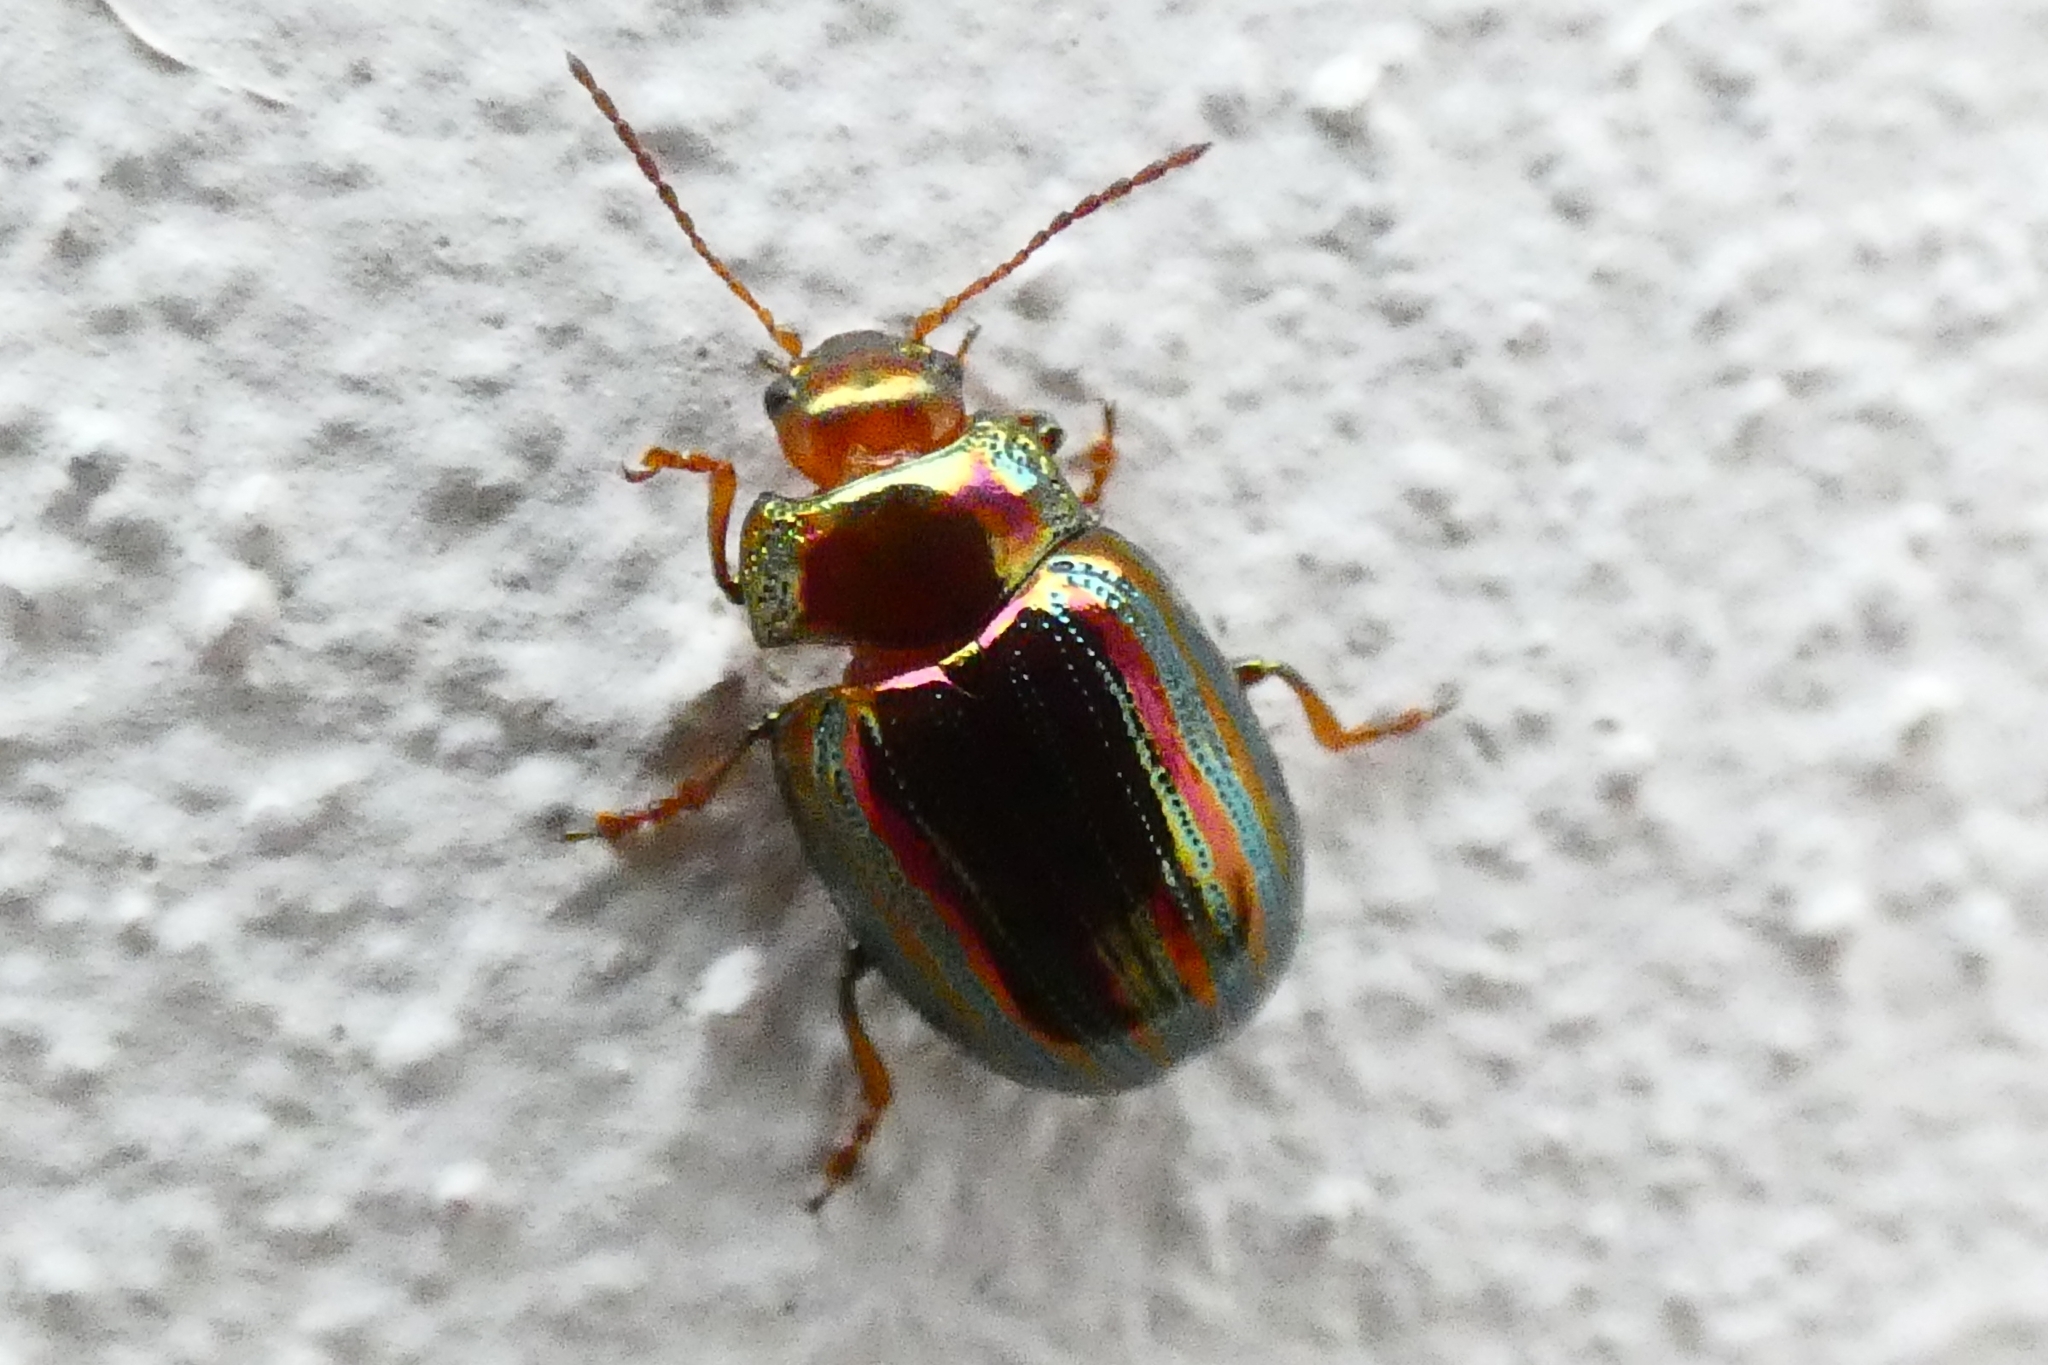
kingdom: Animalia
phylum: Arthropoda
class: Insecta
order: Coleoptera
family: Chrysomelidae
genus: Chrysolina
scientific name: Chrysolina americana
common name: Rosemary beetle
